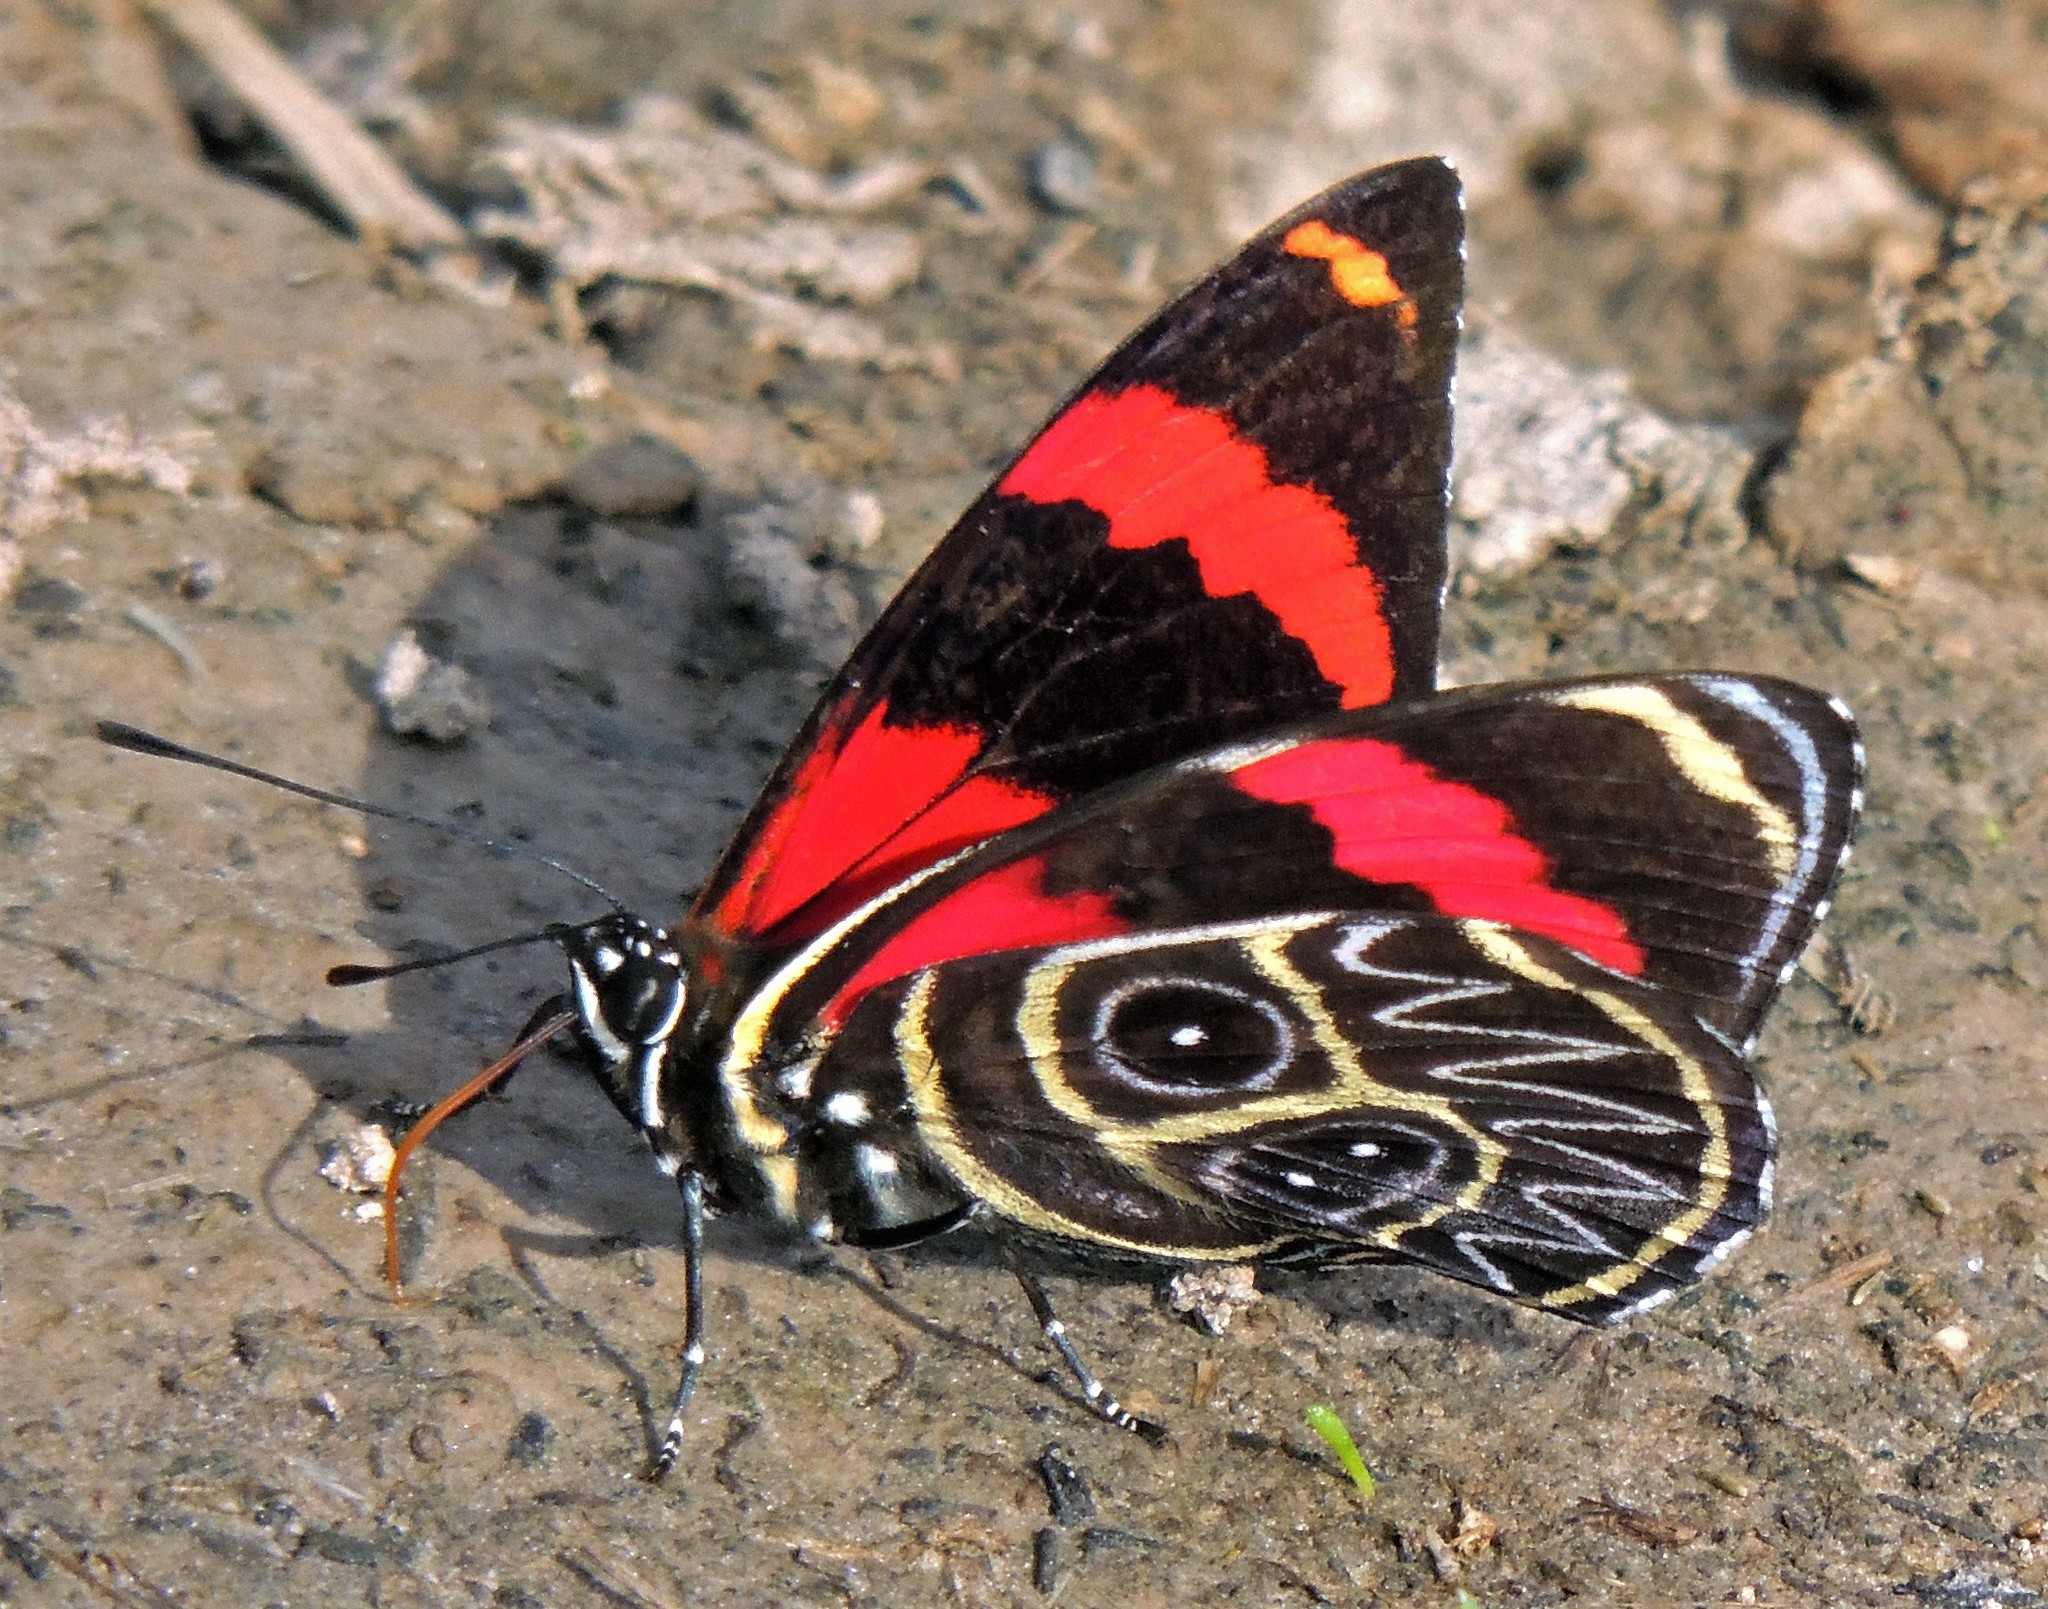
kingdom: Animalia
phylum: Arthropoda
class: Insecta
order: Lepidoptera
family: Nymphalidae
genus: Catagramma
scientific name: Catagramma Callicore sorana
